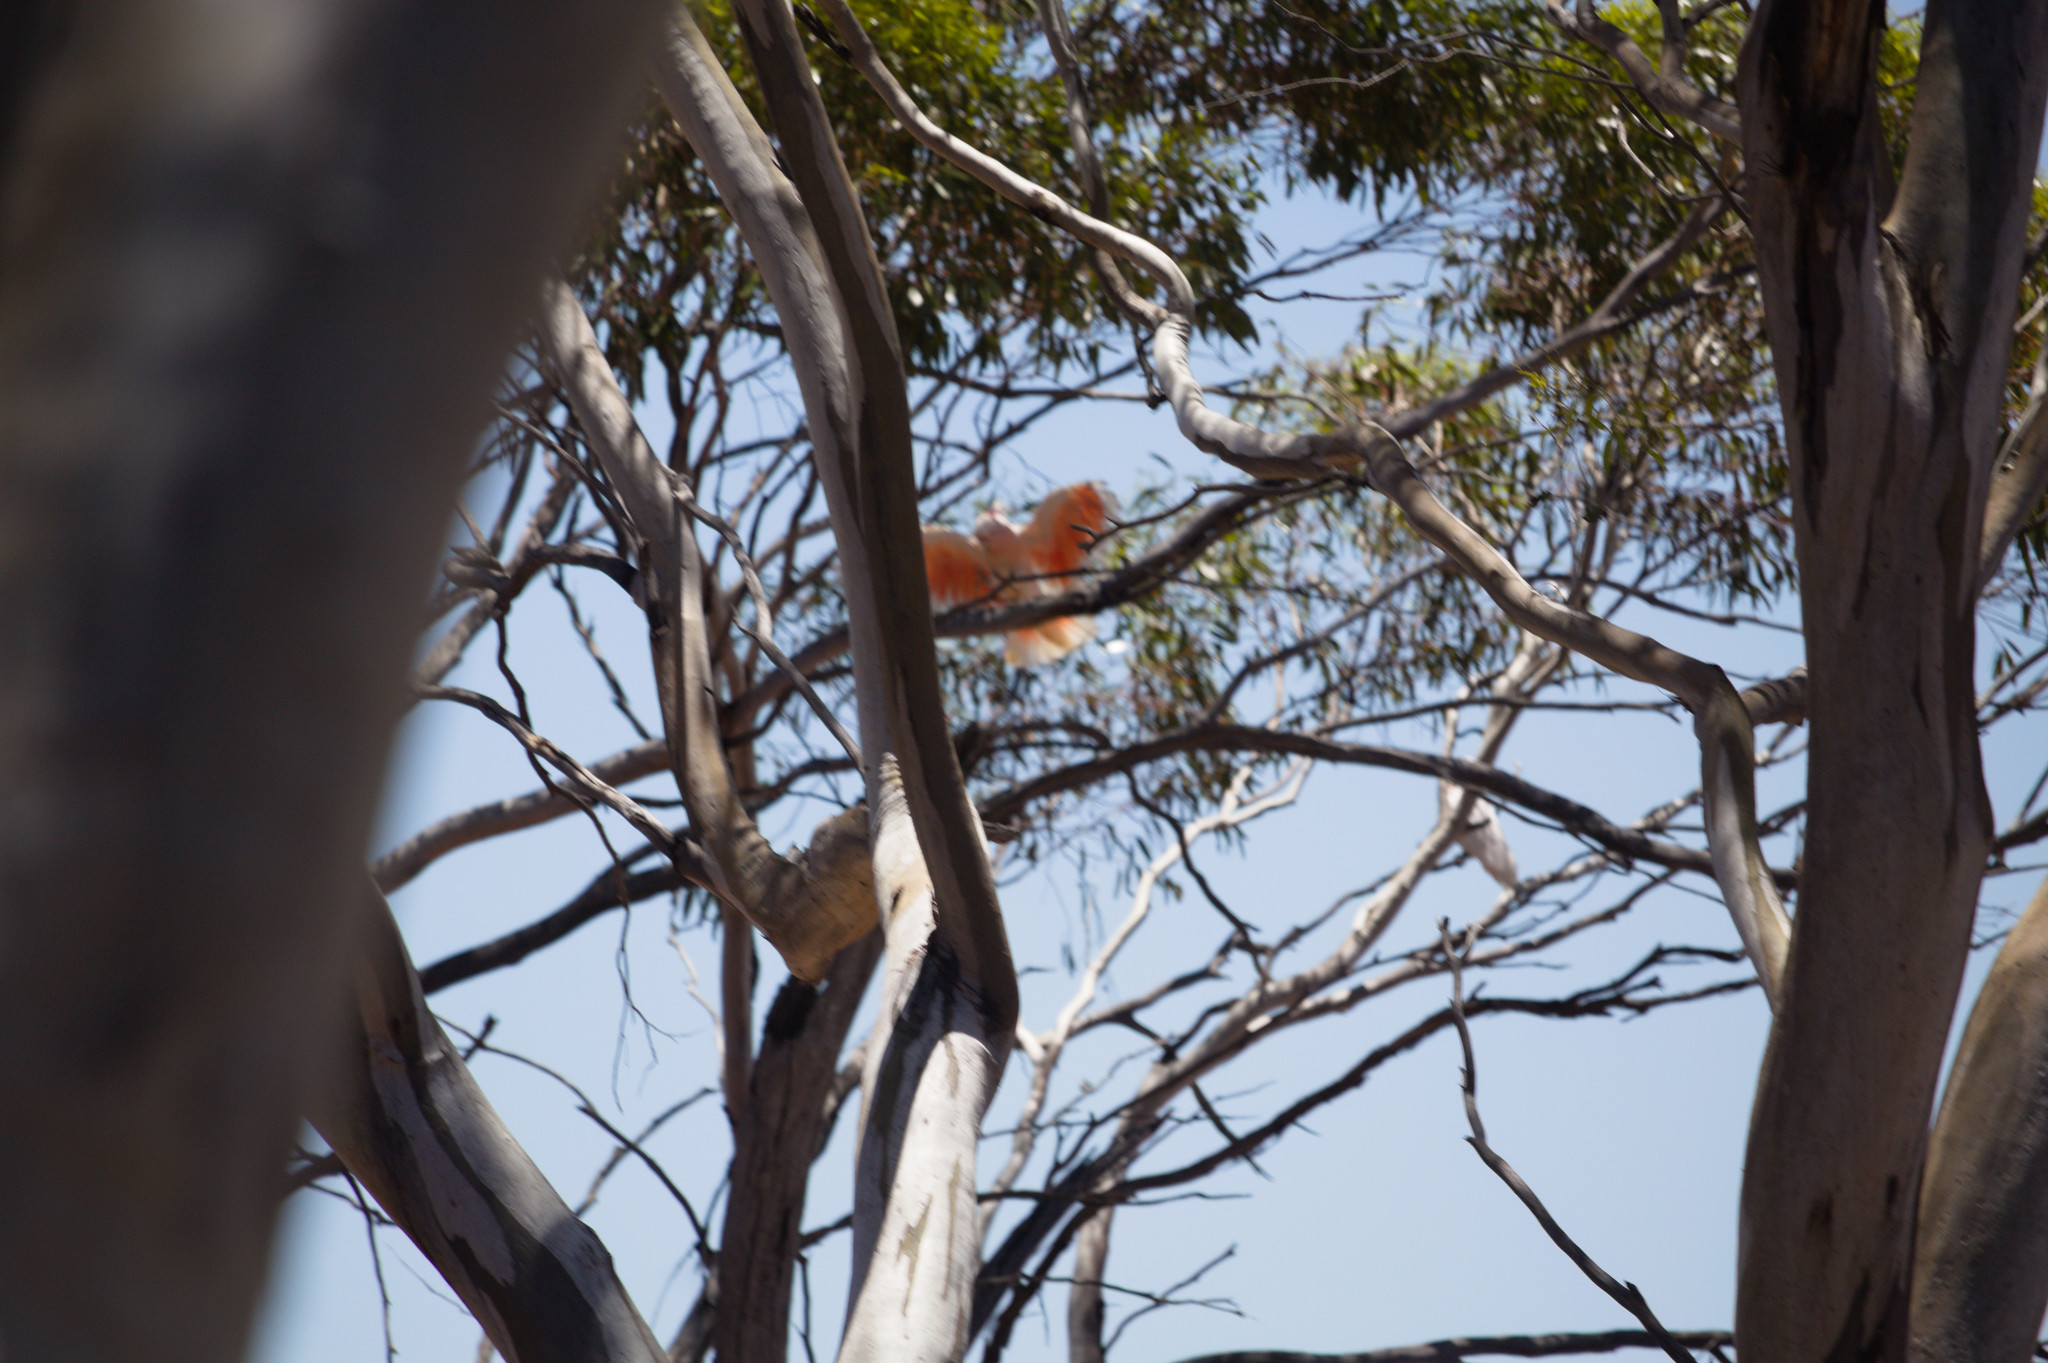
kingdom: Animalia
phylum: Chordata
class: Aves
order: Psittaciformes
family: Psittacidae
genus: Cacatua
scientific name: Cacatua leadbeateri
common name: Major mitchell's cockatoo
